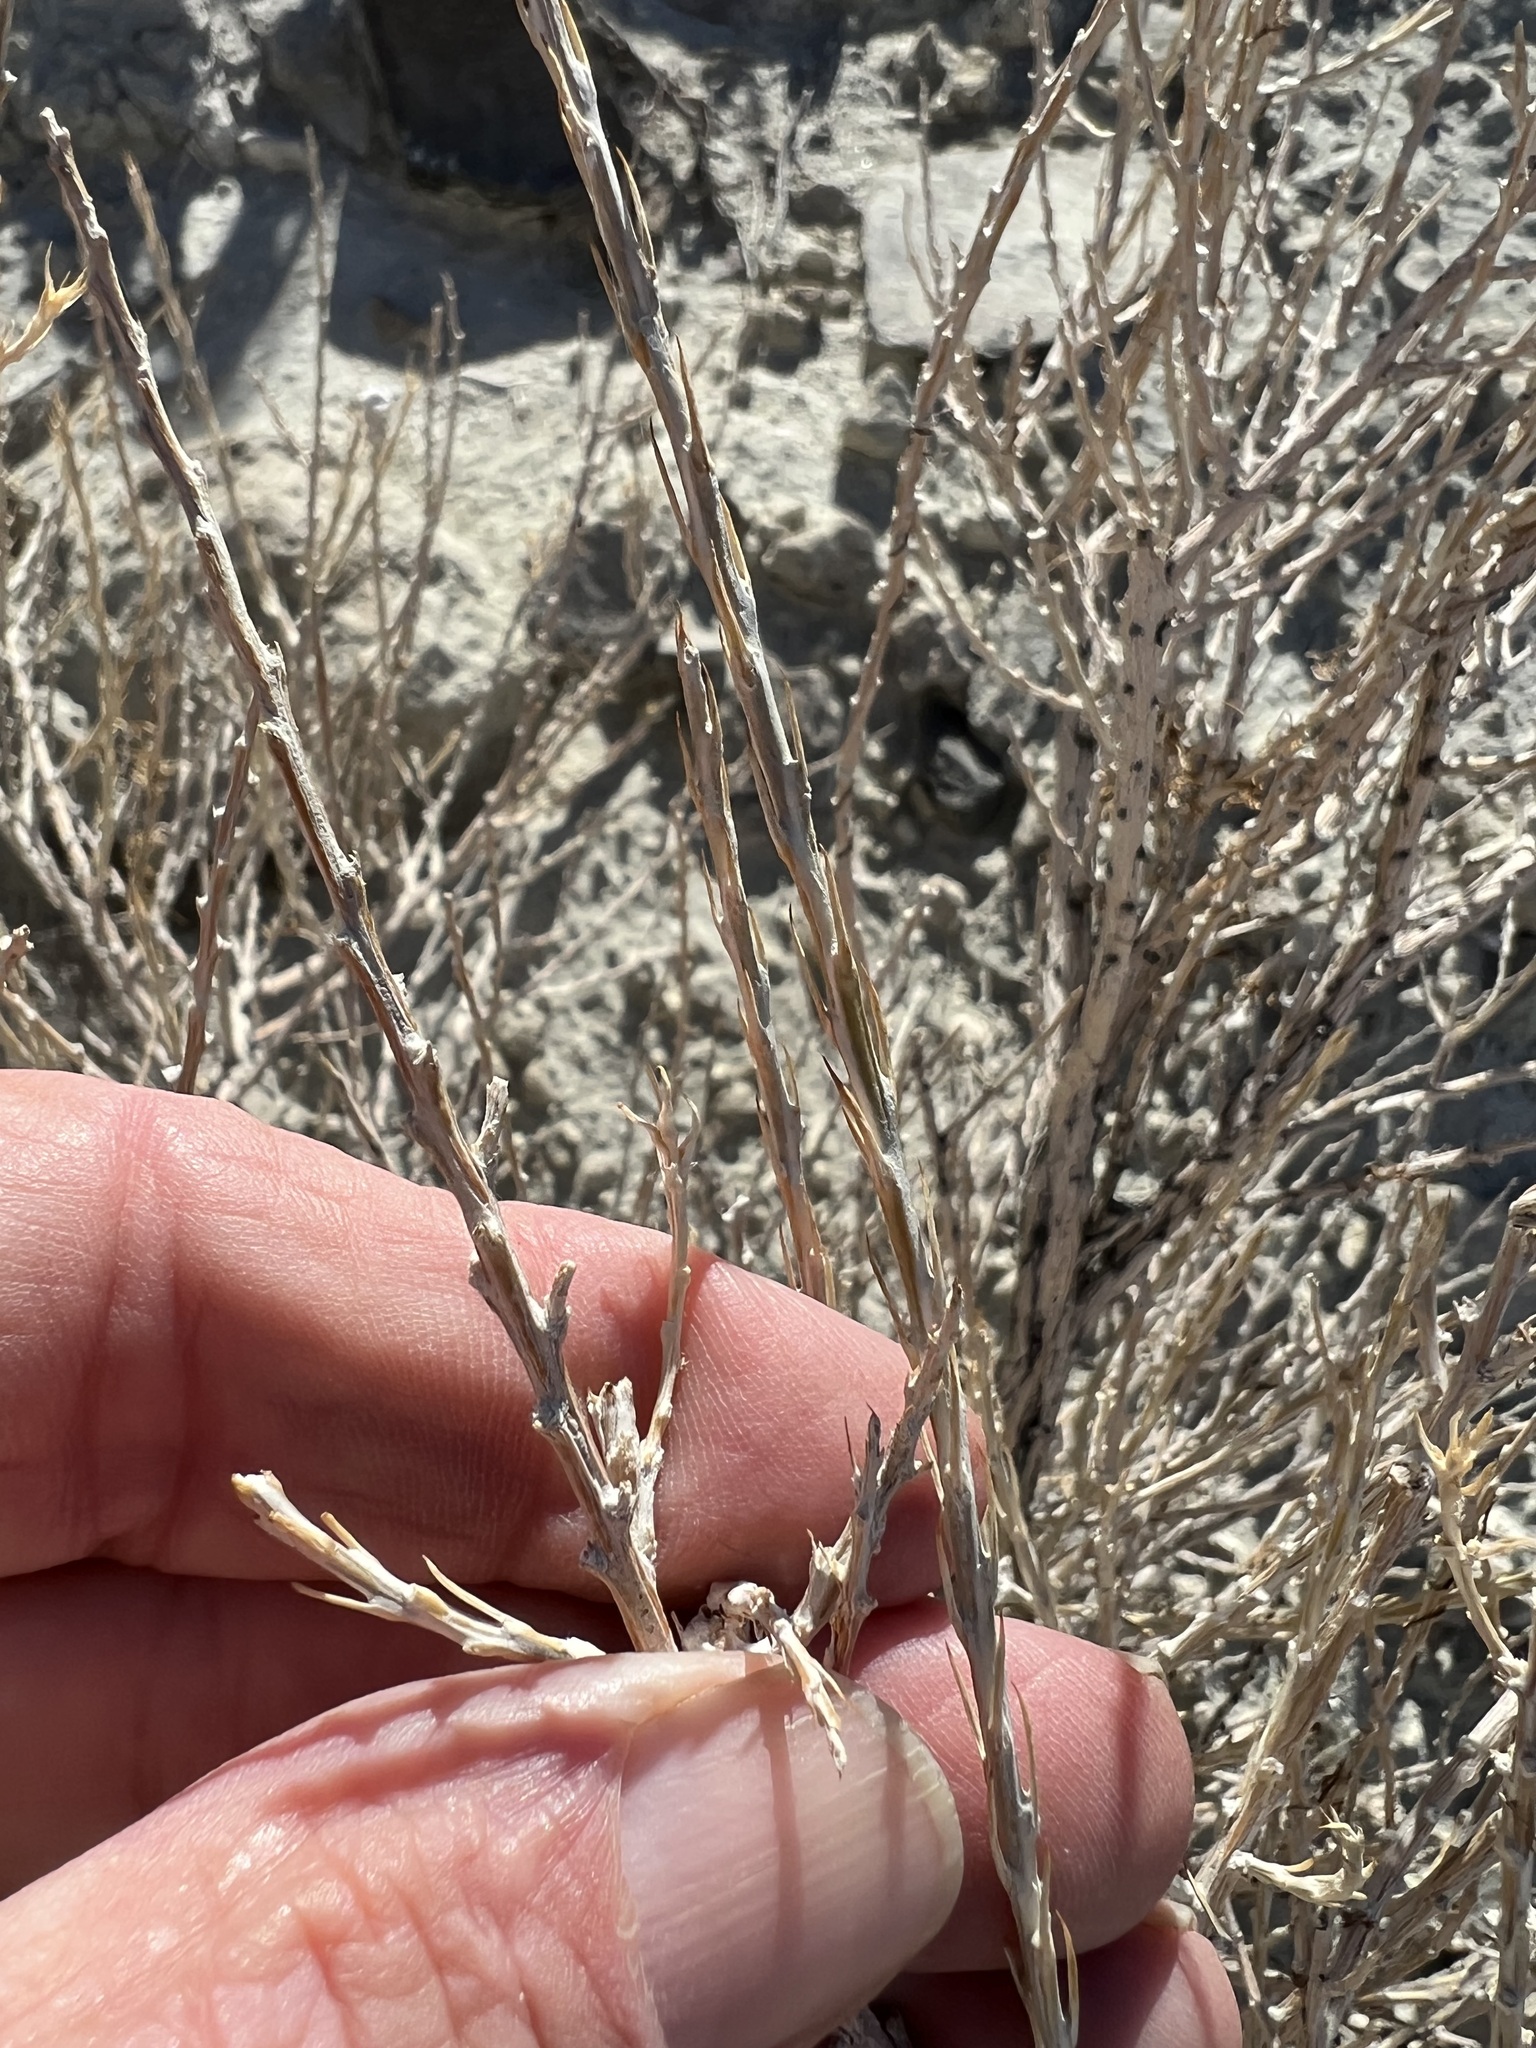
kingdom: Plantae
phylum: Tracheophyta
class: Magnoliopsida
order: Asterales
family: Asteraceae
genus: Tetradymia
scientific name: Tetradymia glabrata
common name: Smooth tetradymia
